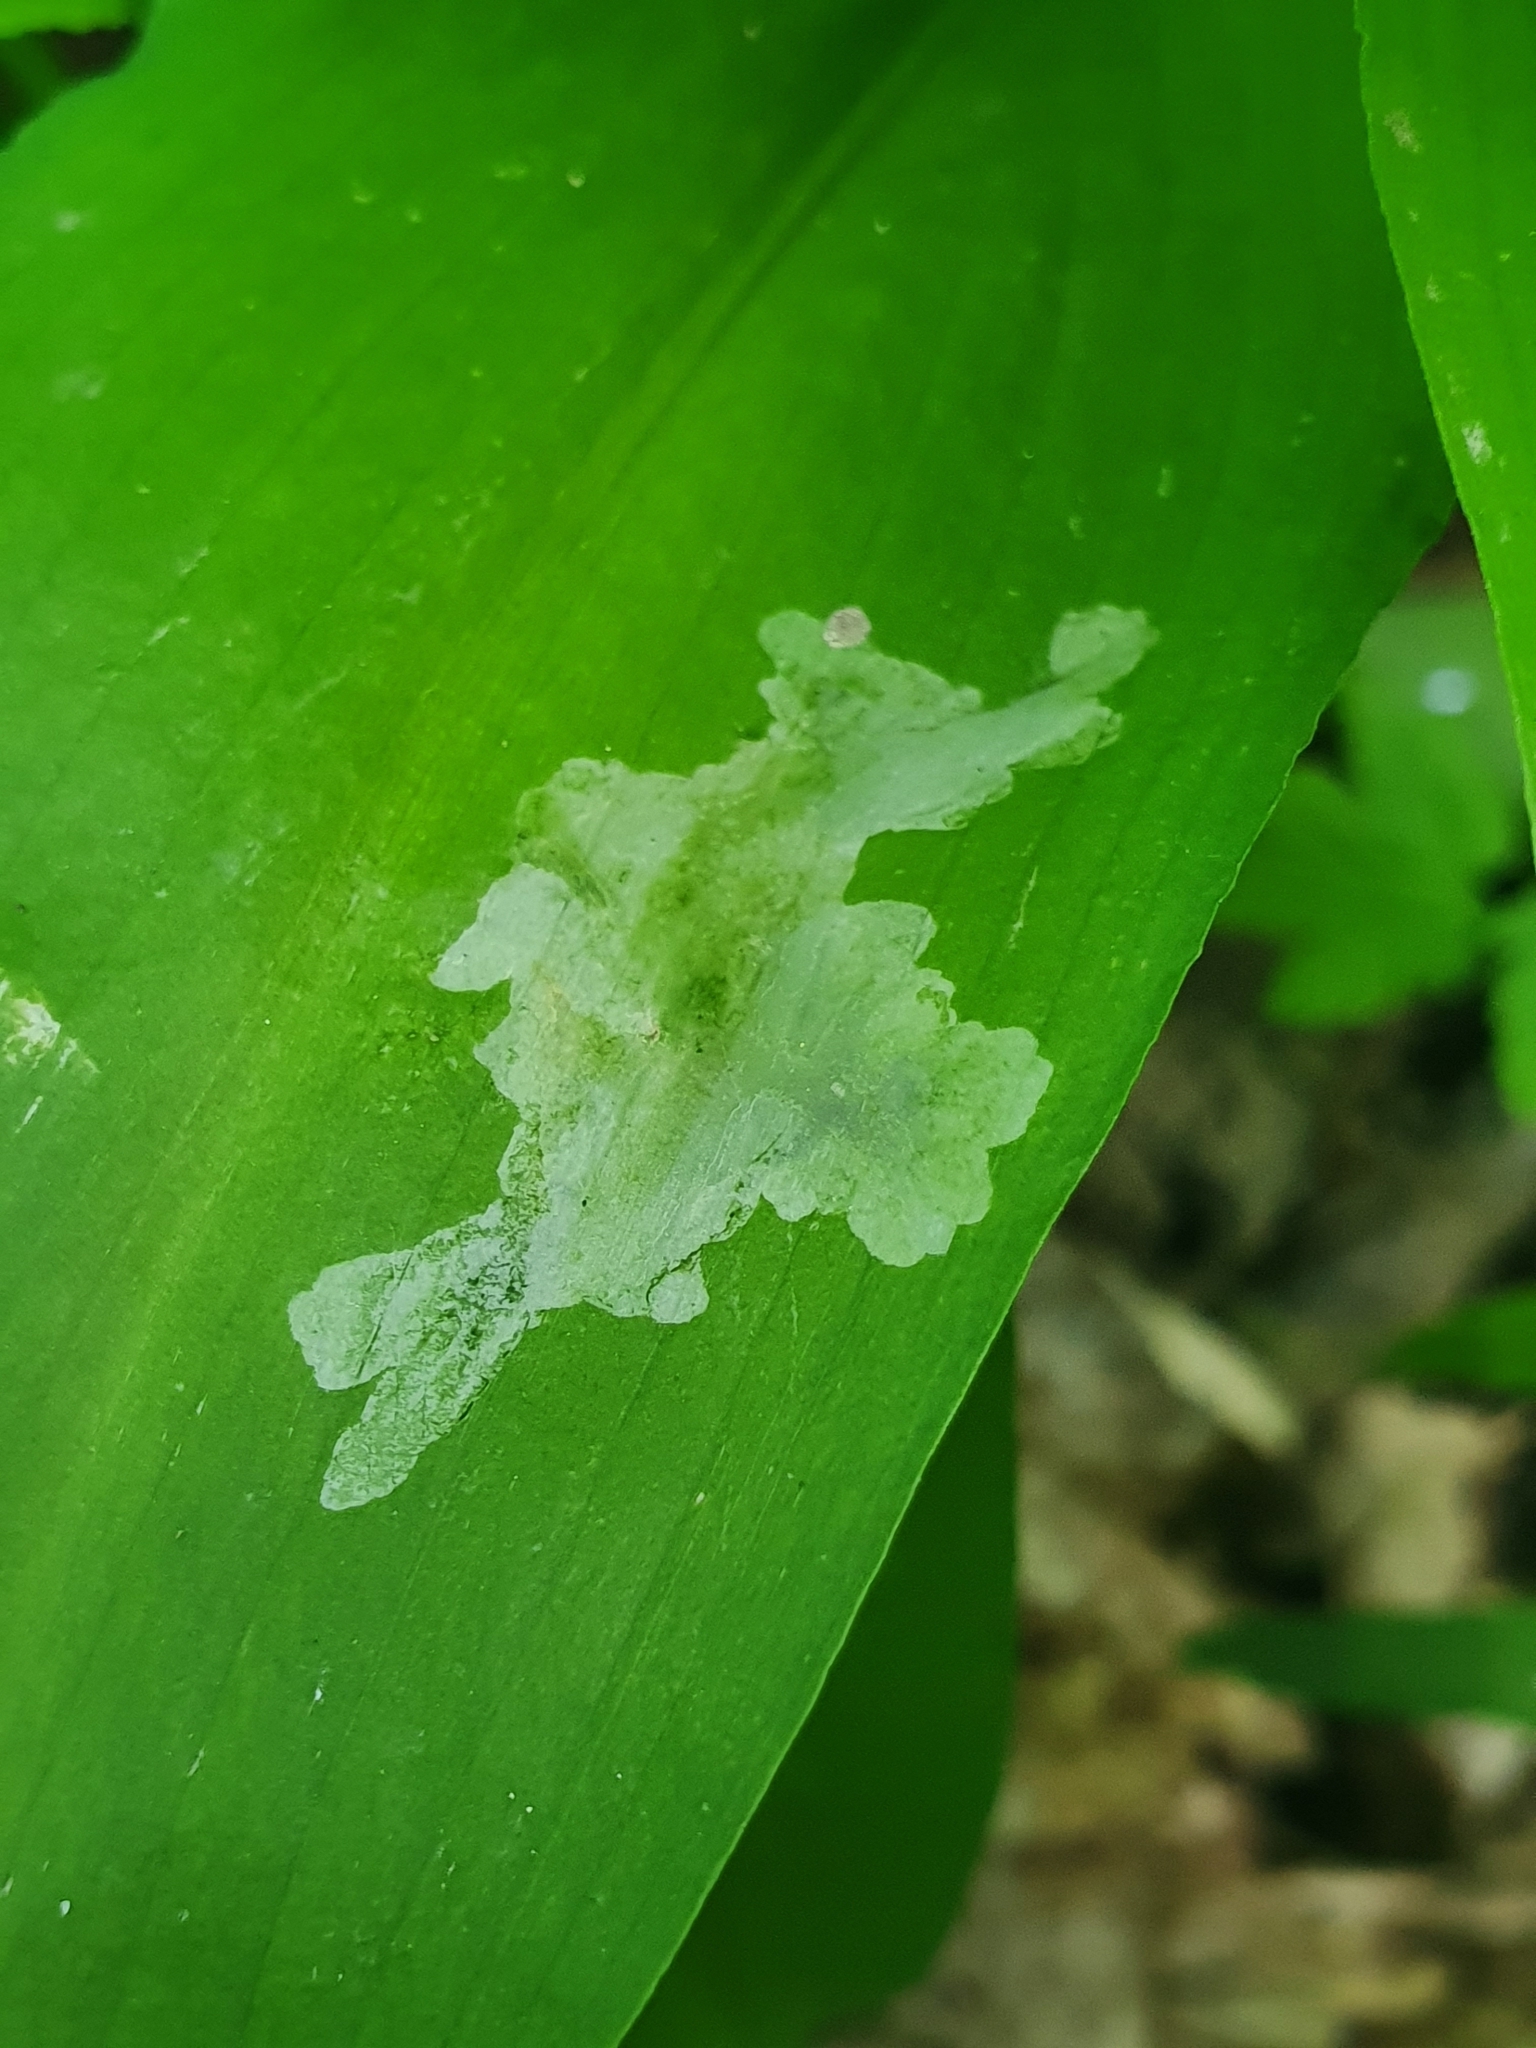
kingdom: Animalia
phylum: Arthropoda
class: Insecta
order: Diptera
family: Syrphidae
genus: Cheilosia
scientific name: Cheilosia fasciata
